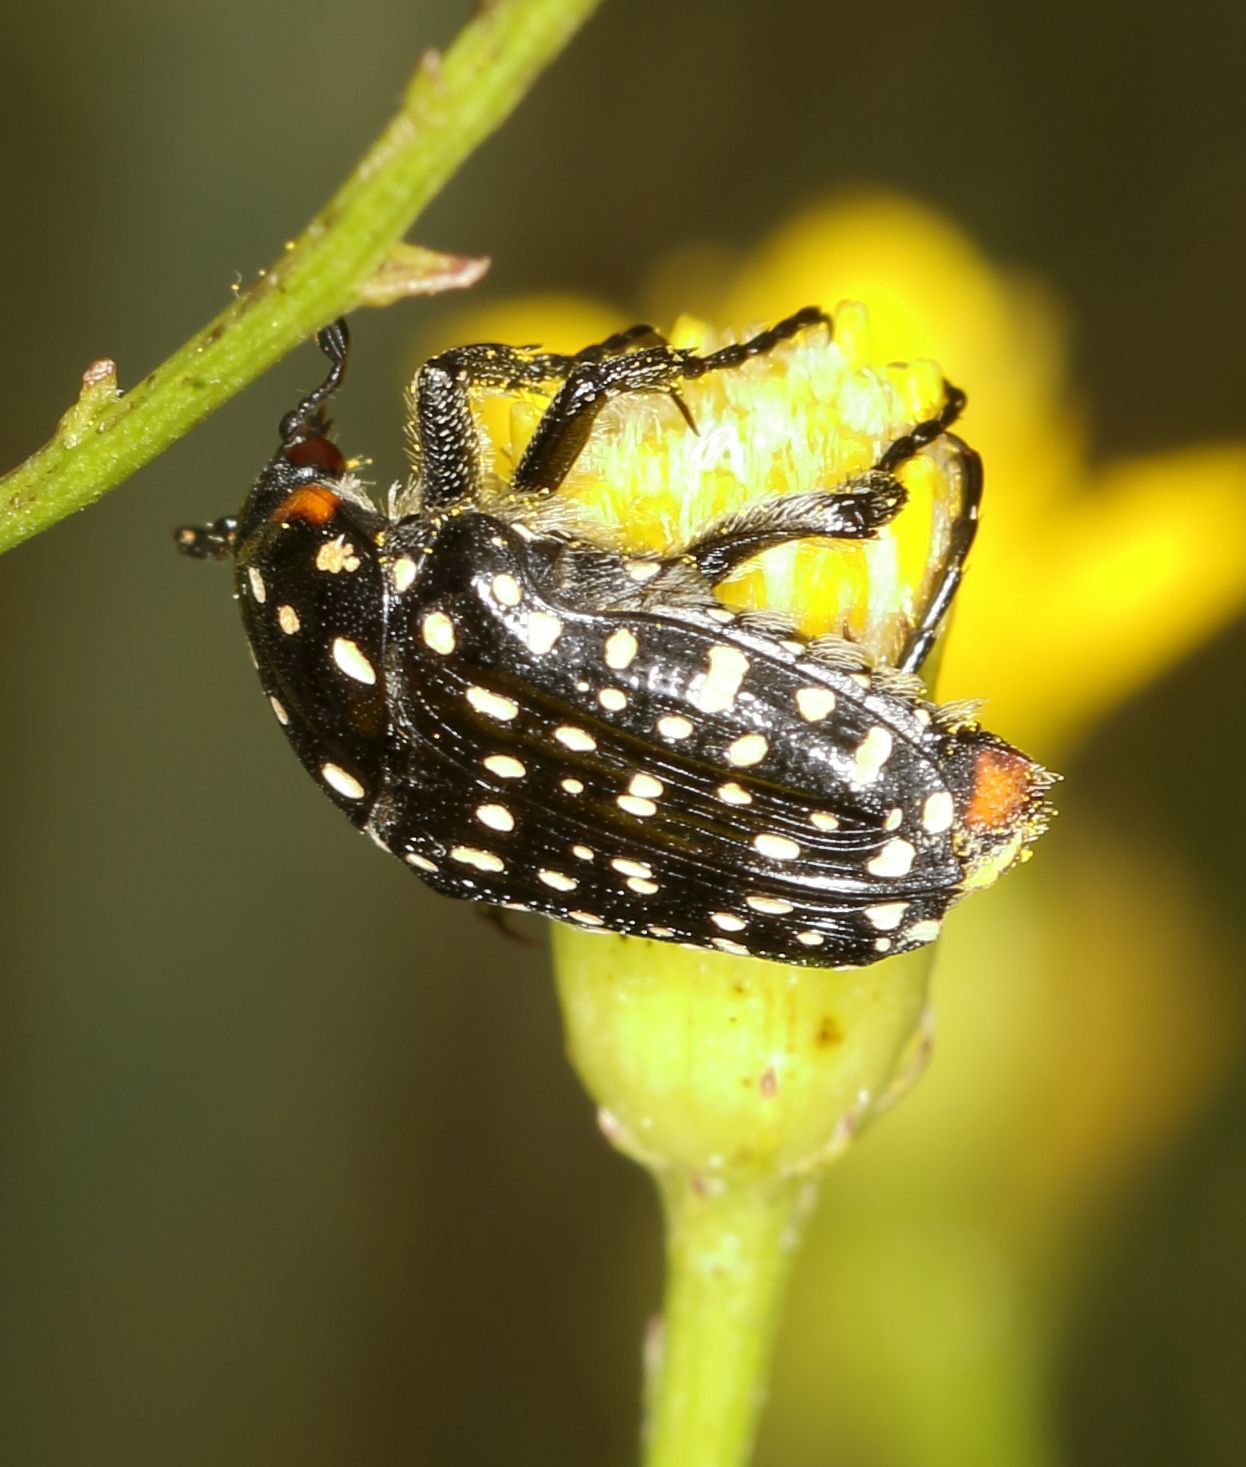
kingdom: Animalia
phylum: Arthropoda
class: Insecta
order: Coleoptera
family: Scarabaeidae
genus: Oxythyrea
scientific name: Oxythyrea
